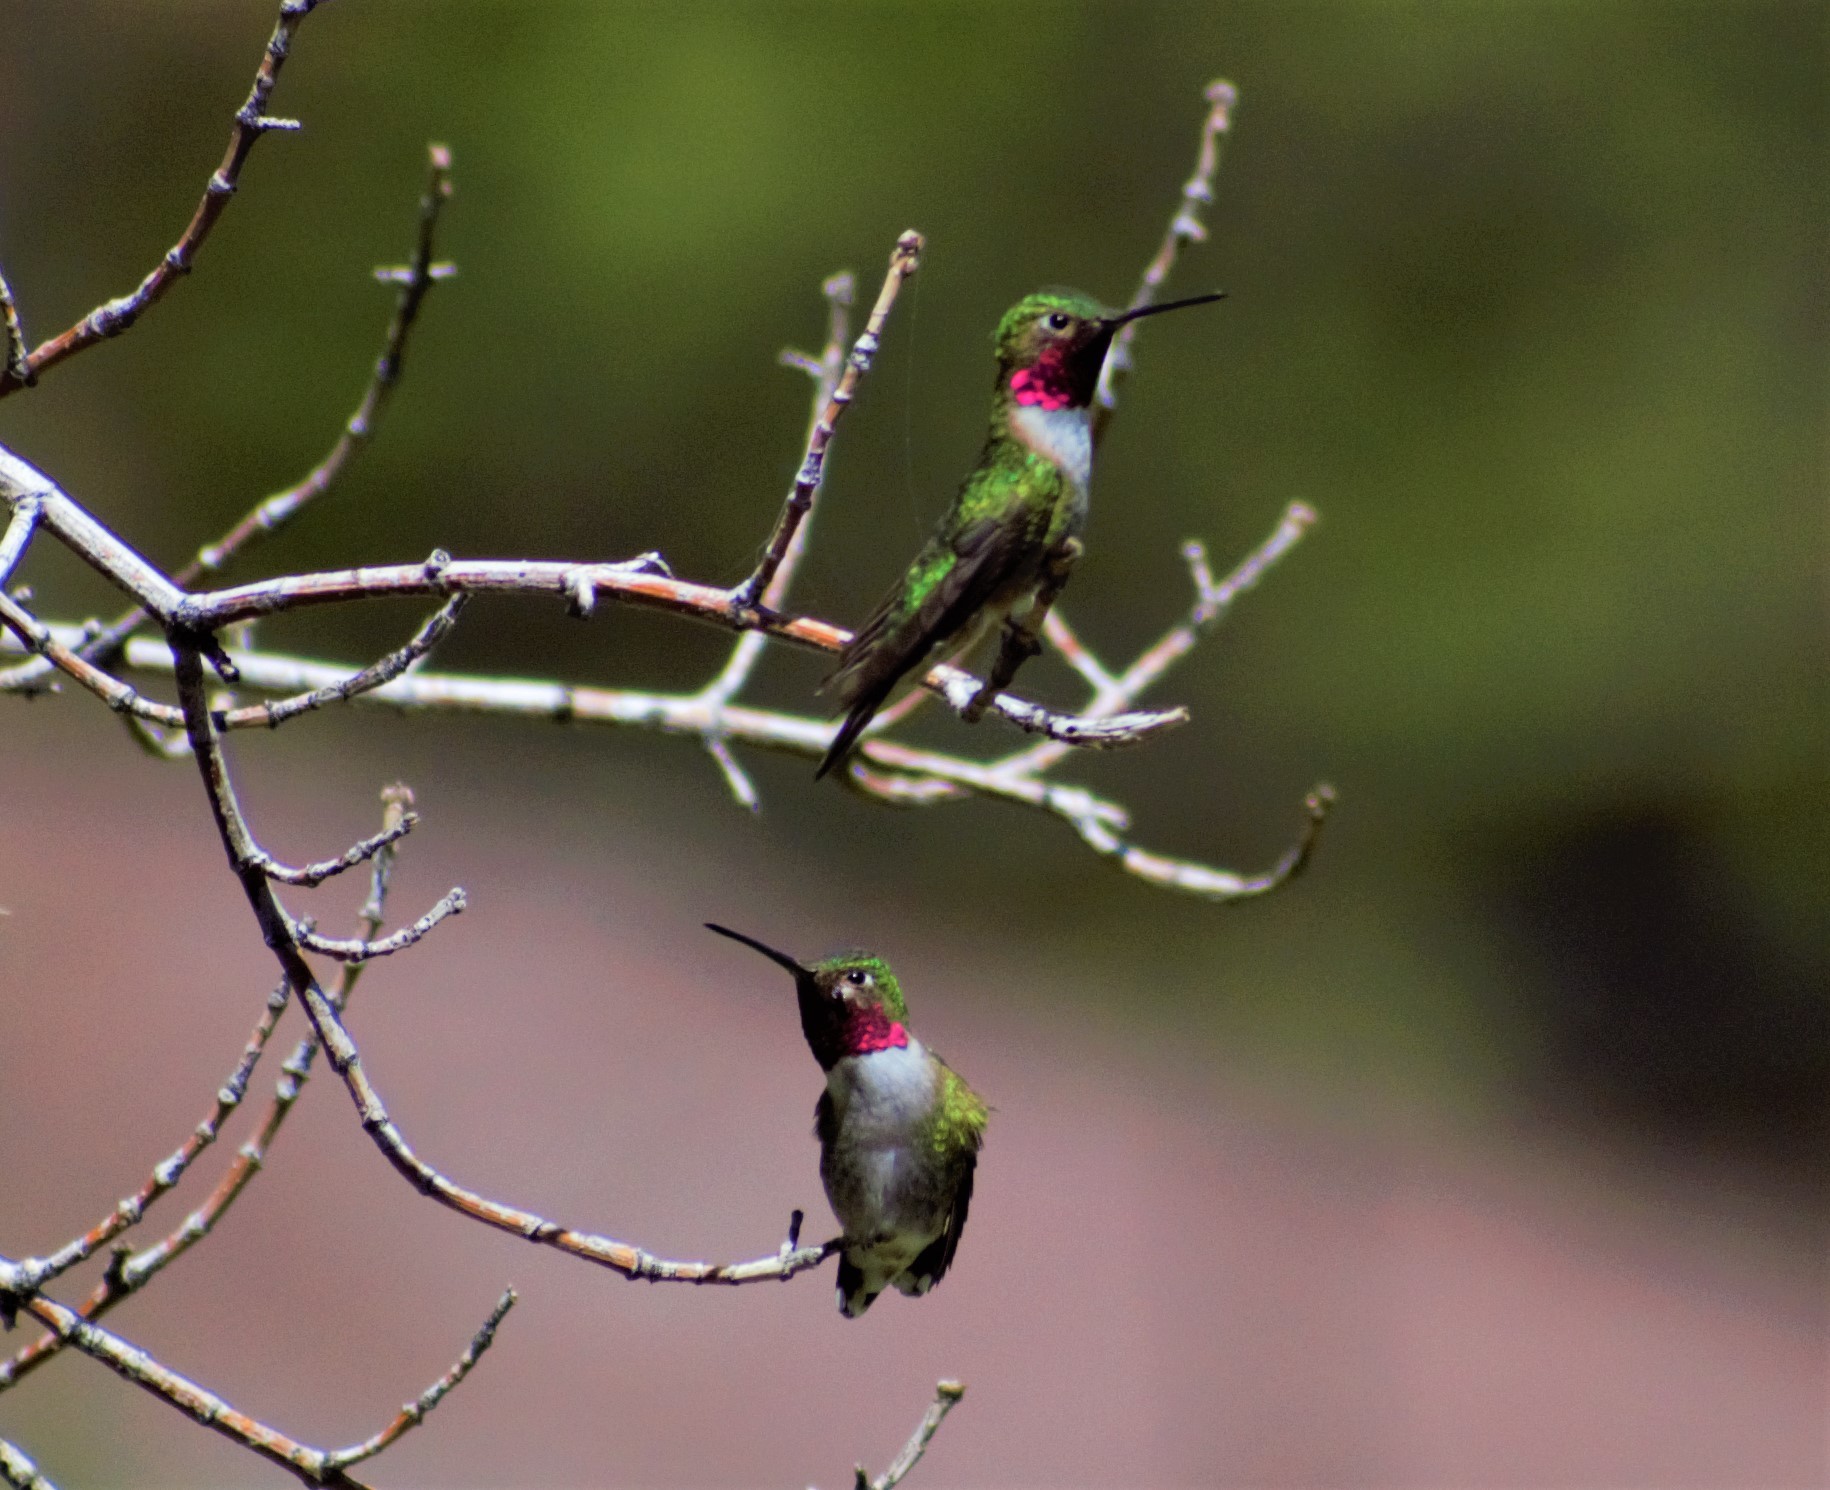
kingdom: Animalia
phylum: Chordata
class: Aves
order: Apodiformes
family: Trochilidae
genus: Selasphorus
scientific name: Selasphorus platycercus
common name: Broad-tailed hummingbird
